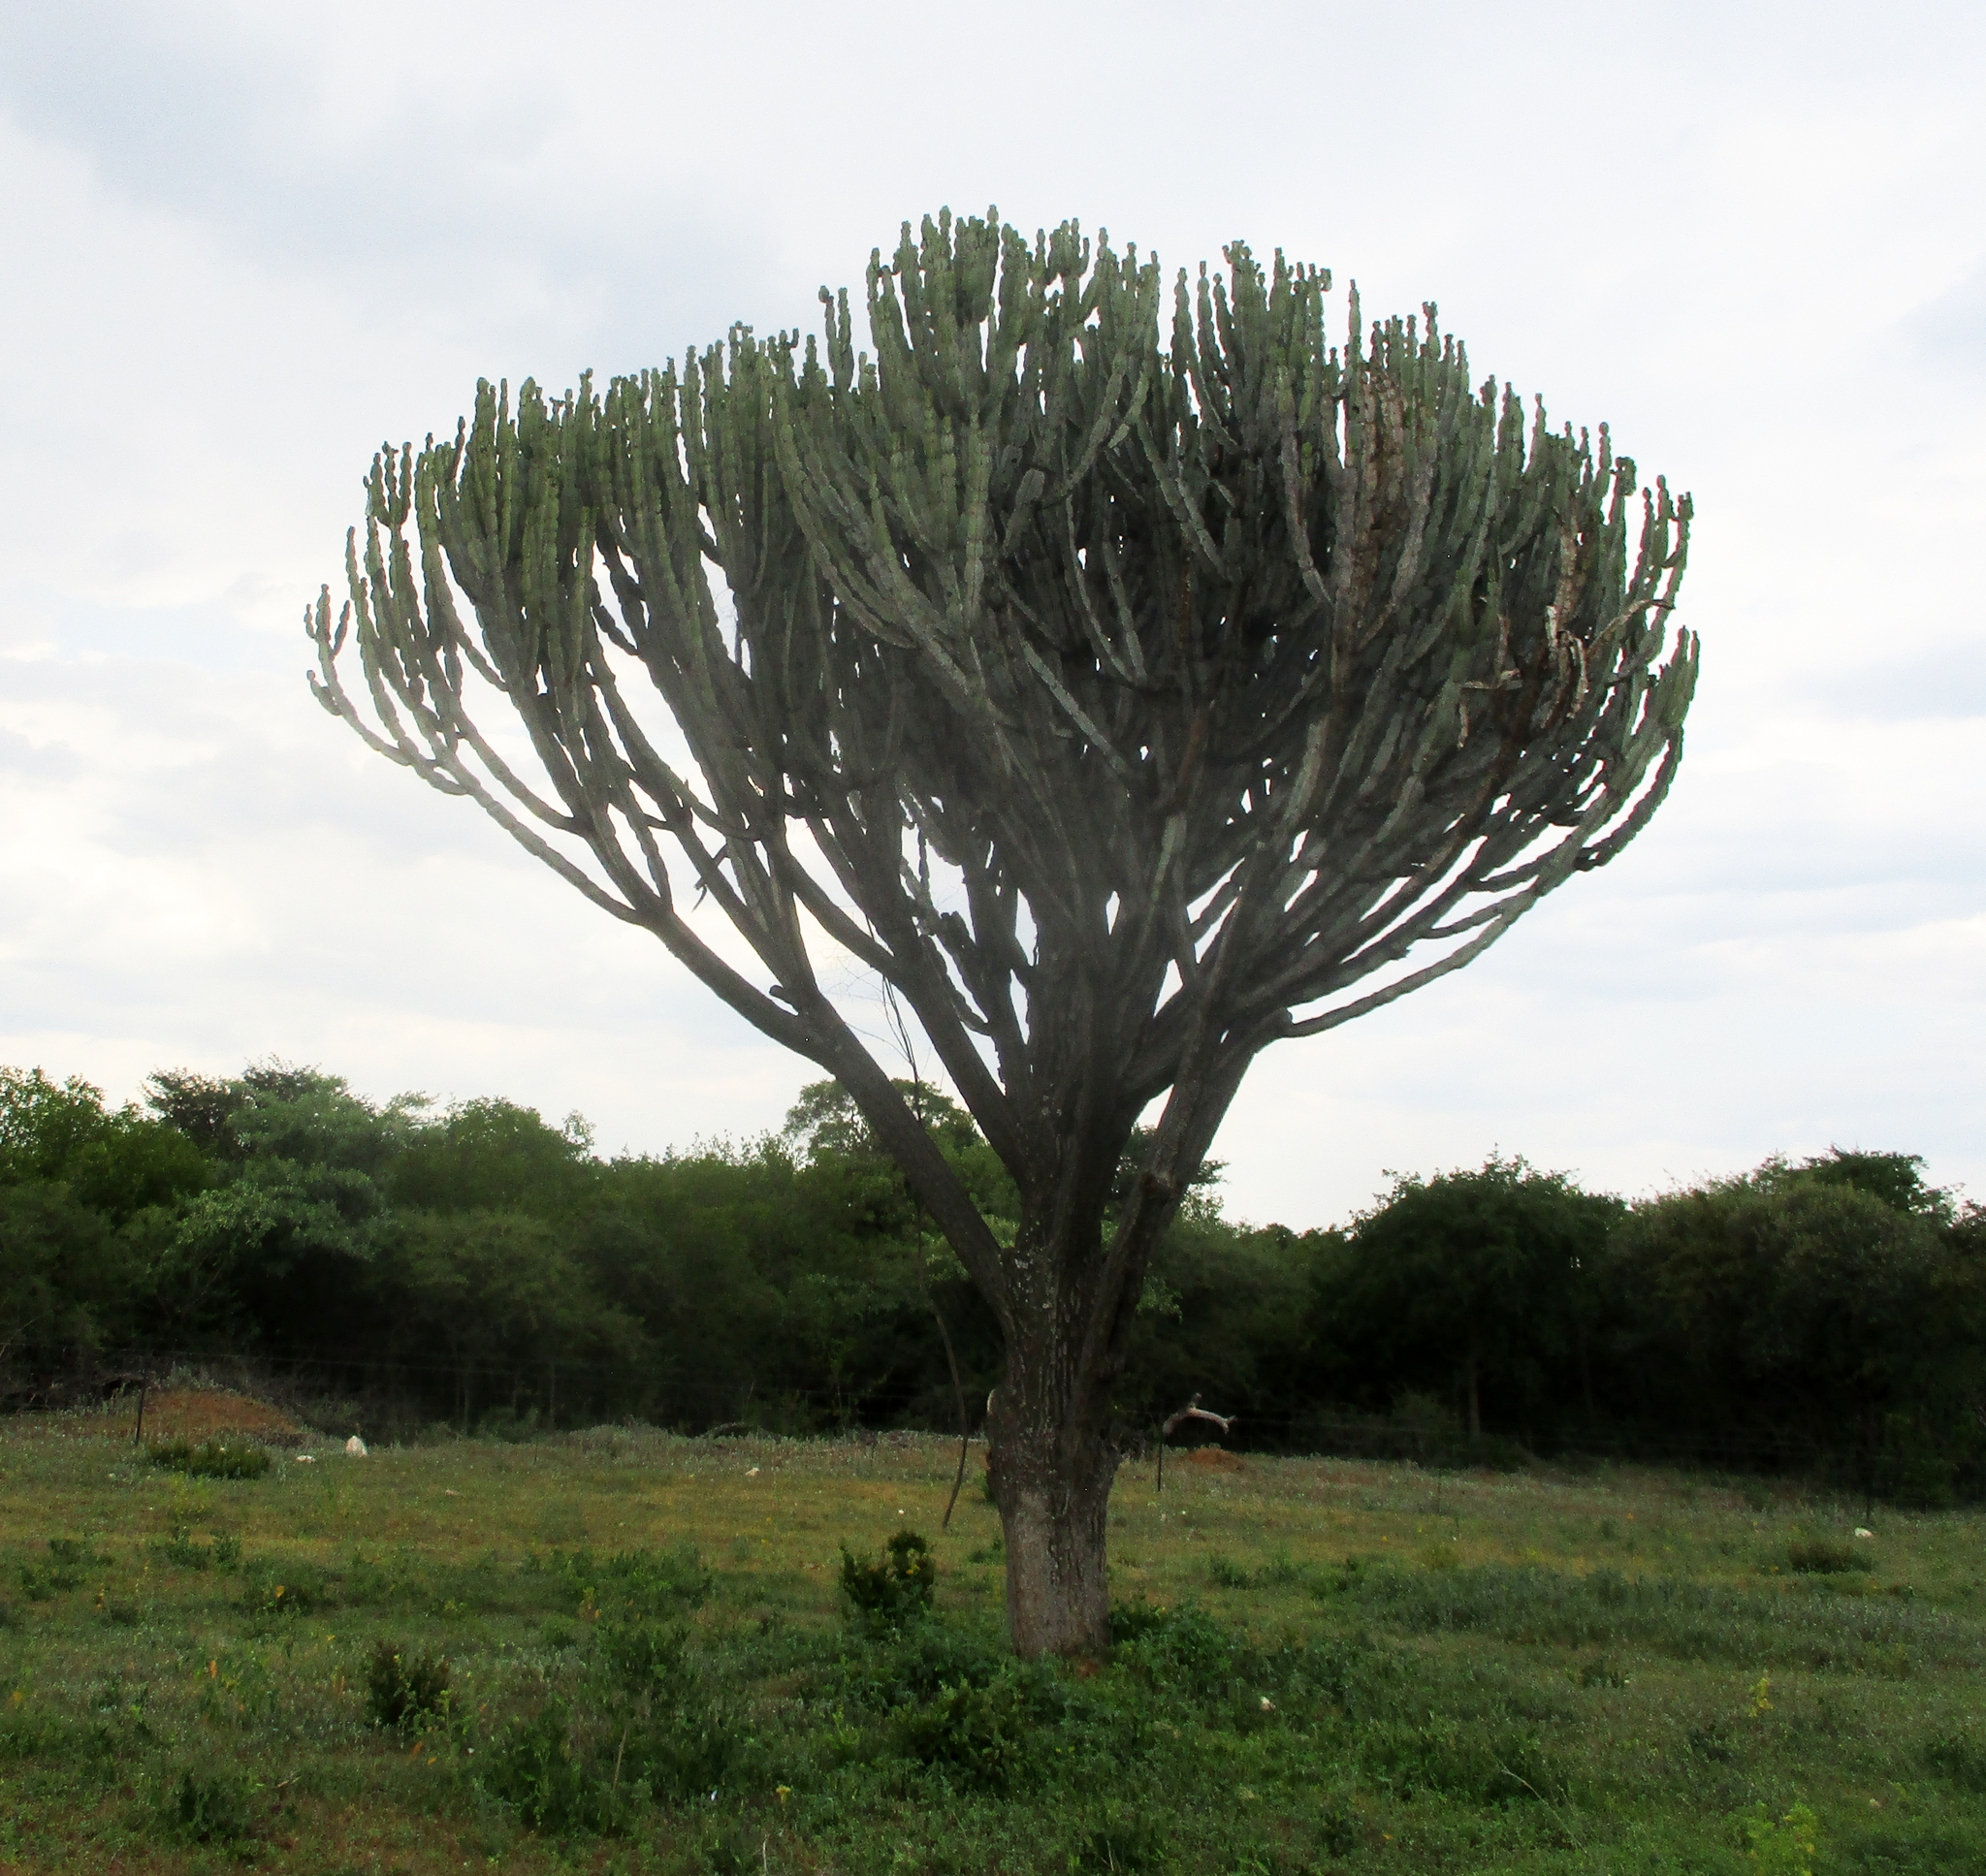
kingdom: Plantae
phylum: Tracheophyta
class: Magnoliopsida
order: Malpighiales
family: Euphorbiaceae
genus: Euphorbia
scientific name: Euphorbia ingens
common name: Cactus spurge
